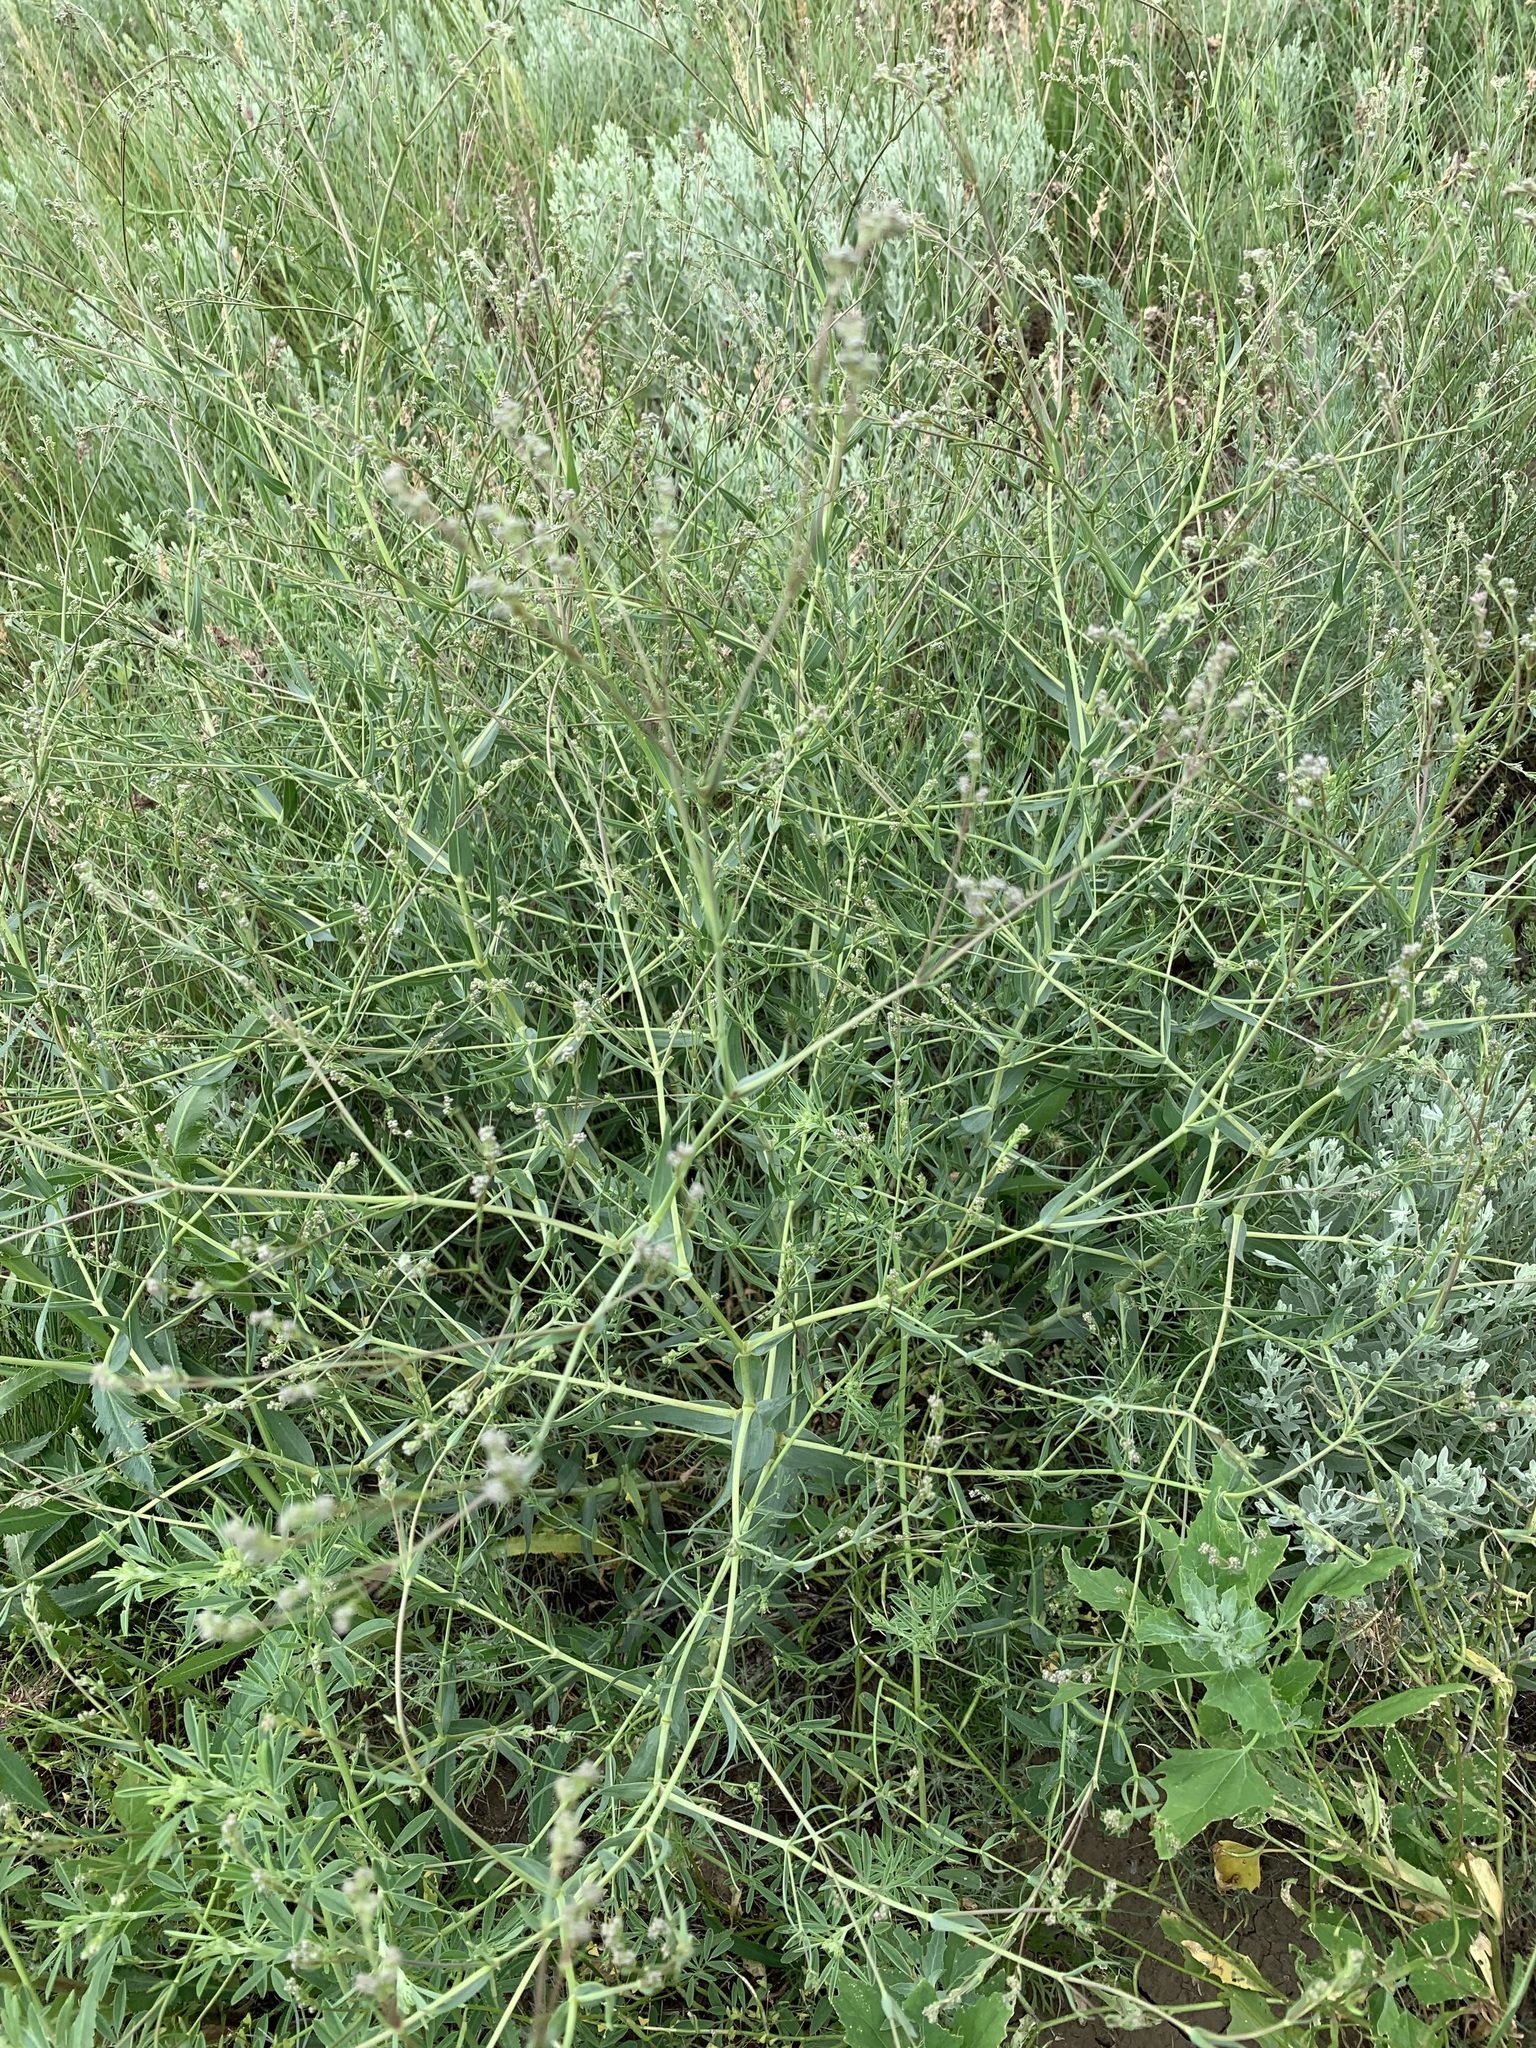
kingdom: Plantae
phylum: Tracheophyta
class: Magnoliopsida
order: Caryophyllales
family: Caryophyllaceae
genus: Gypsophila
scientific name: Gypsophila paniculata
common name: Baby's-breath
